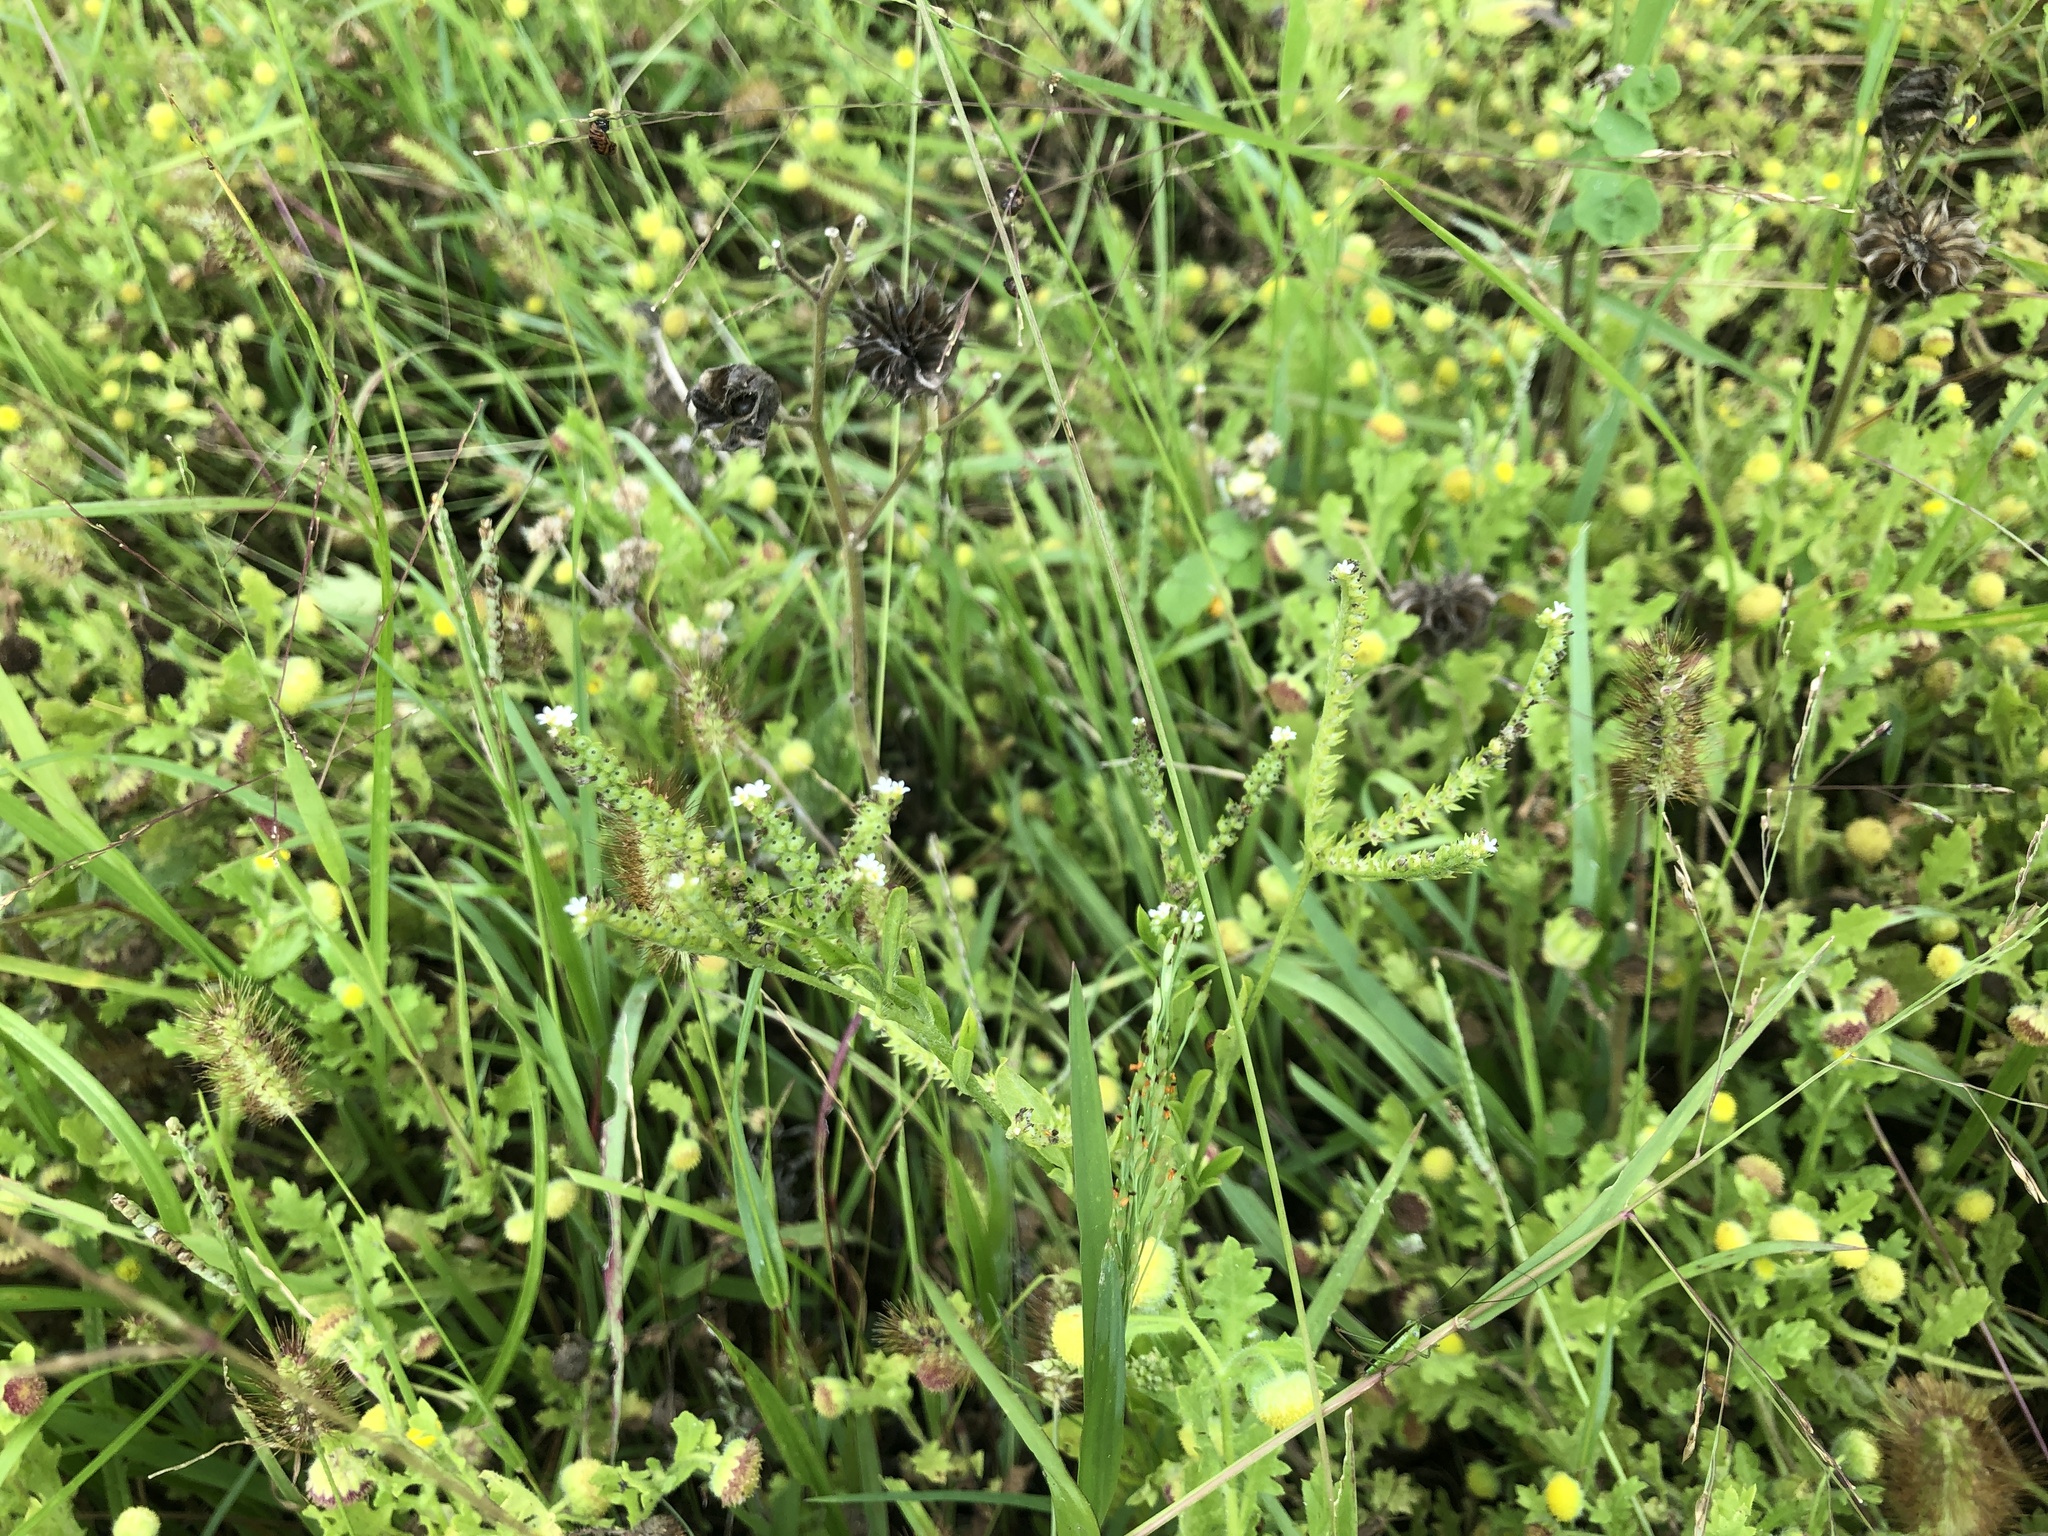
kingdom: Plantae
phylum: Tracheophyta
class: Magnoliopsida
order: Boraginales
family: Heliotropiaceae
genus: Euploca
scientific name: Euploca procumbens
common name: Fourspike heliotrope
